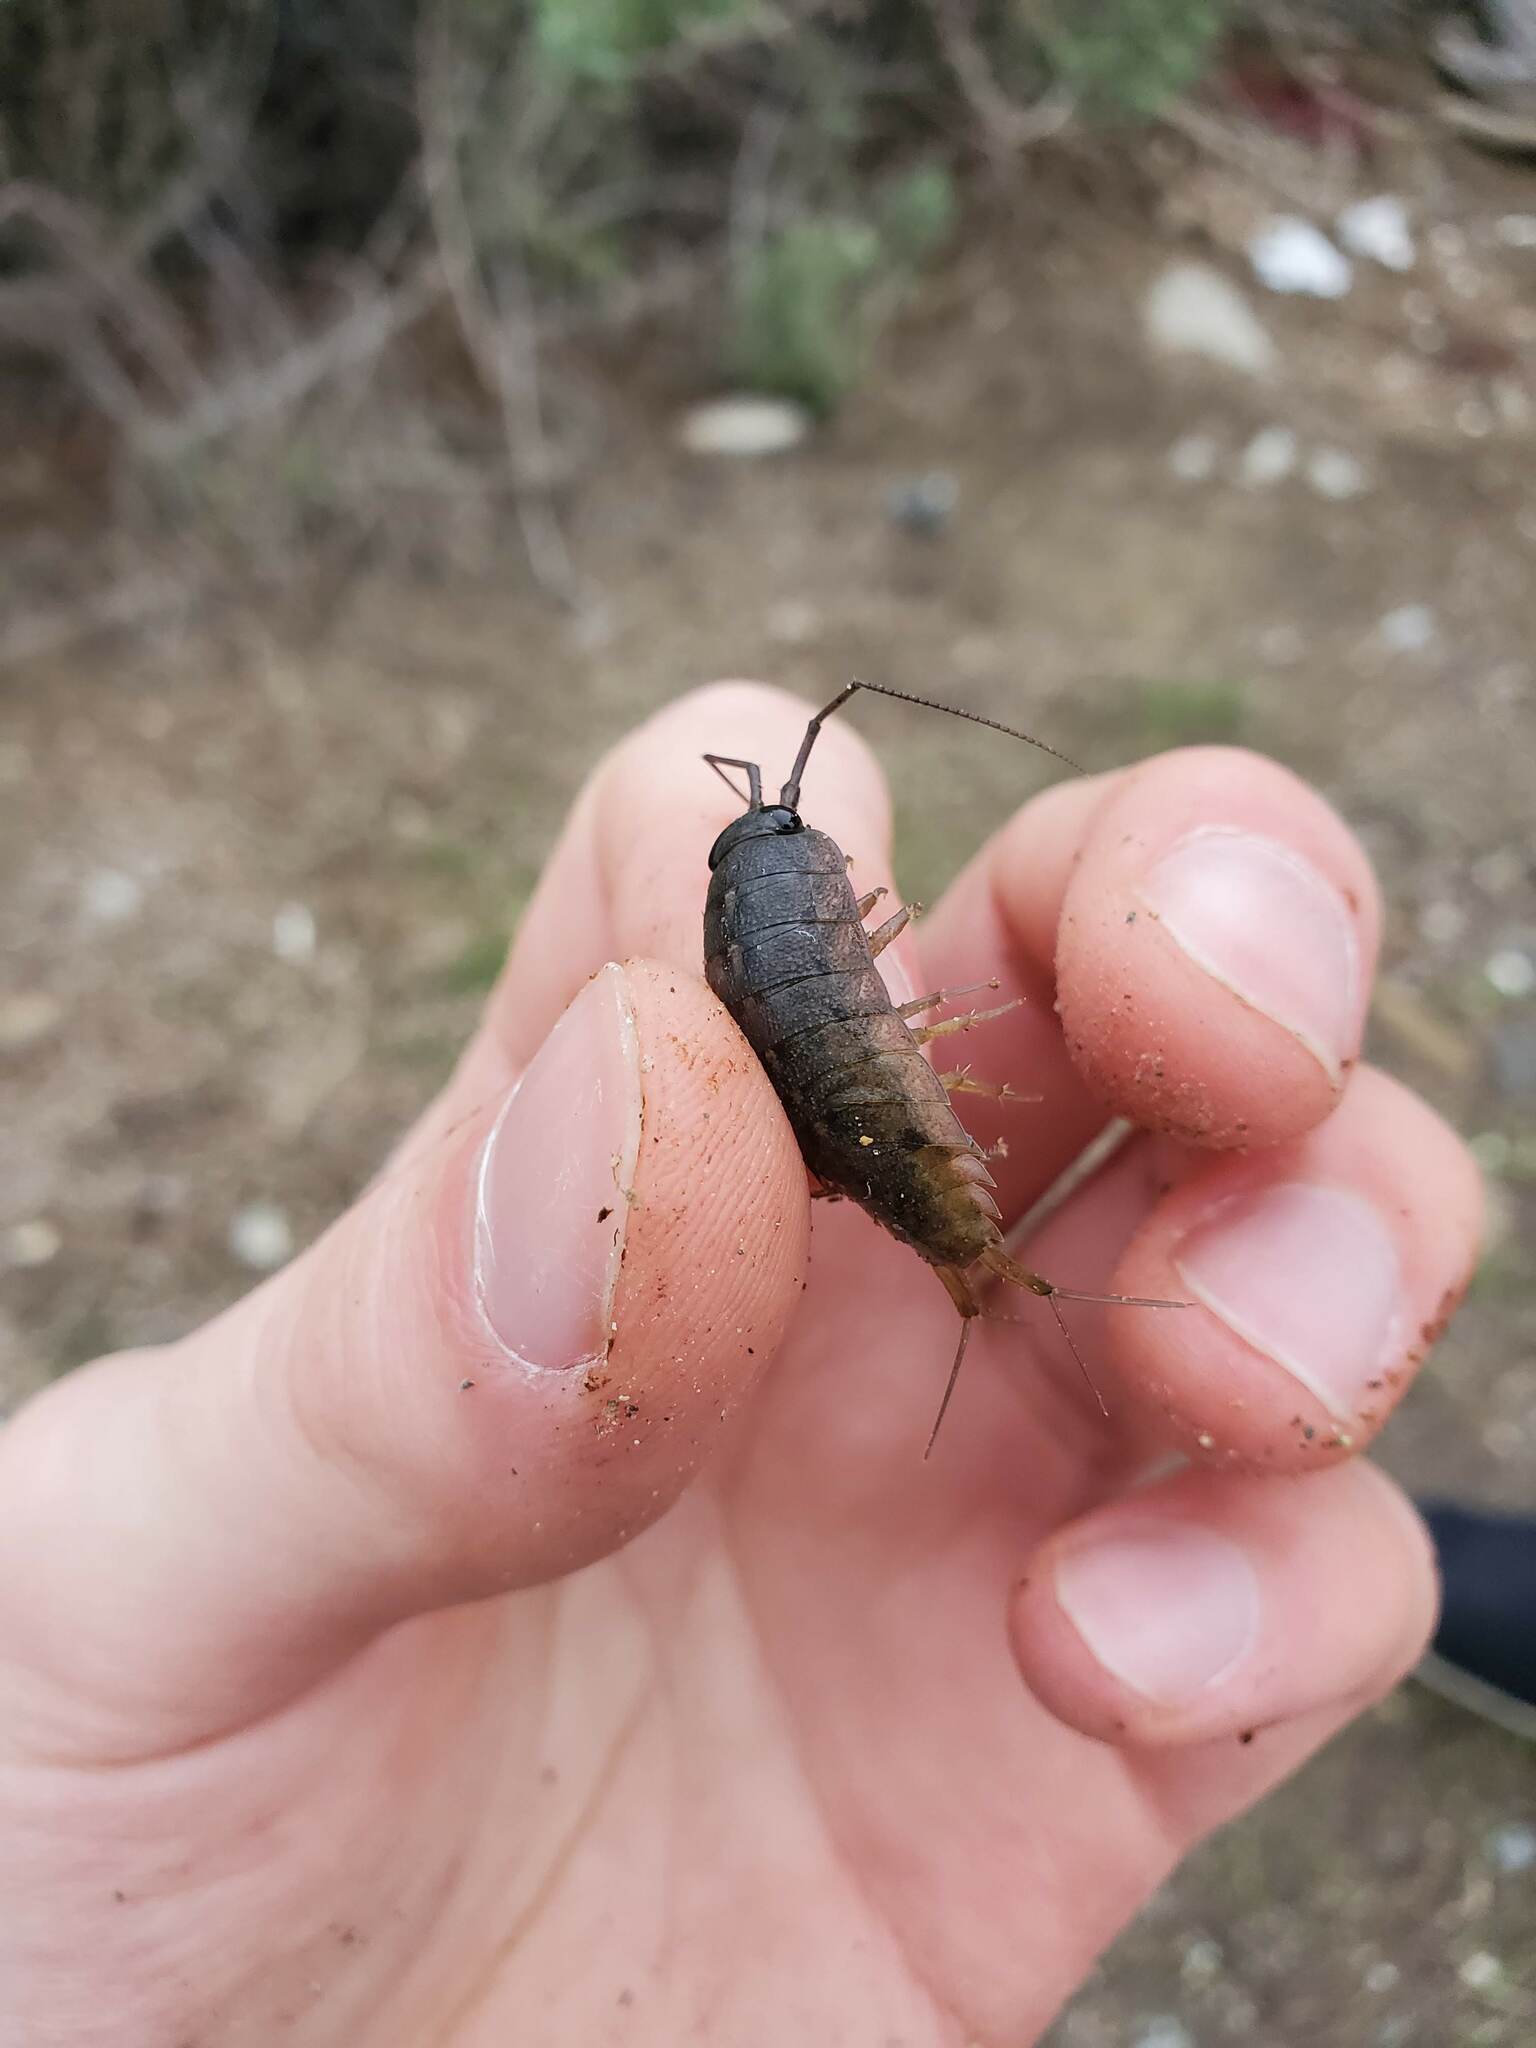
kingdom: Animalia
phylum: Arthropoda
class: Malacostraca
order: Isopoda
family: Ligiidae
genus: Ligia
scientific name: Ligia occidentalis
